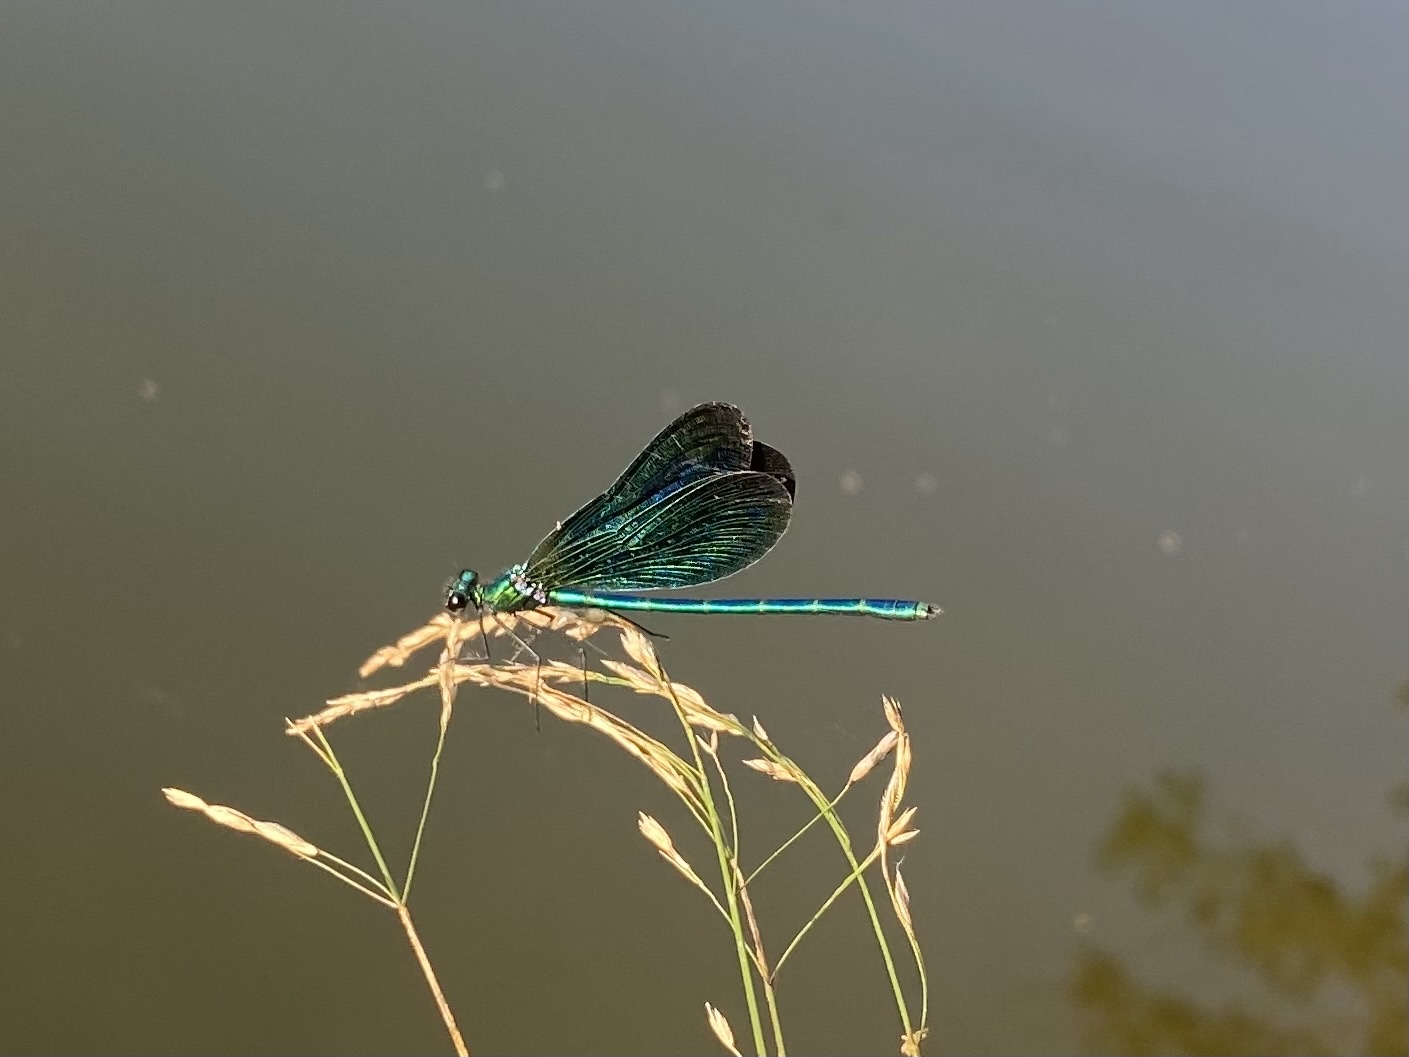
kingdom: Animalia
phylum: Arthropoda
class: Insecta
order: Odonata
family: Calopterygidae
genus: Calopteryx
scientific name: Calopteryx virgo
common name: Beautiful demoiselle
